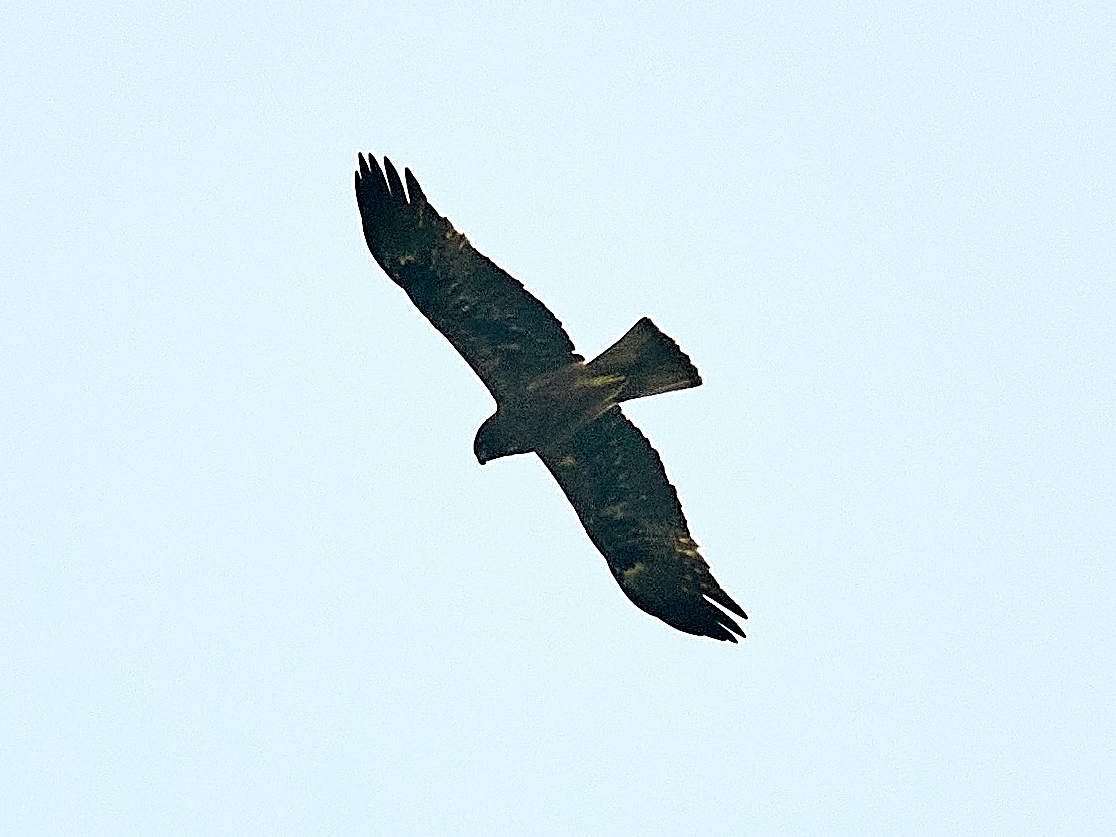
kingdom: Animalia
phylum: Chordata
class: Aves
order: Accipitriformes
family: Accipitridae
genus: Hieraaetus
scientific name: Hieraaetus pennatus
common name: Booted eagle
